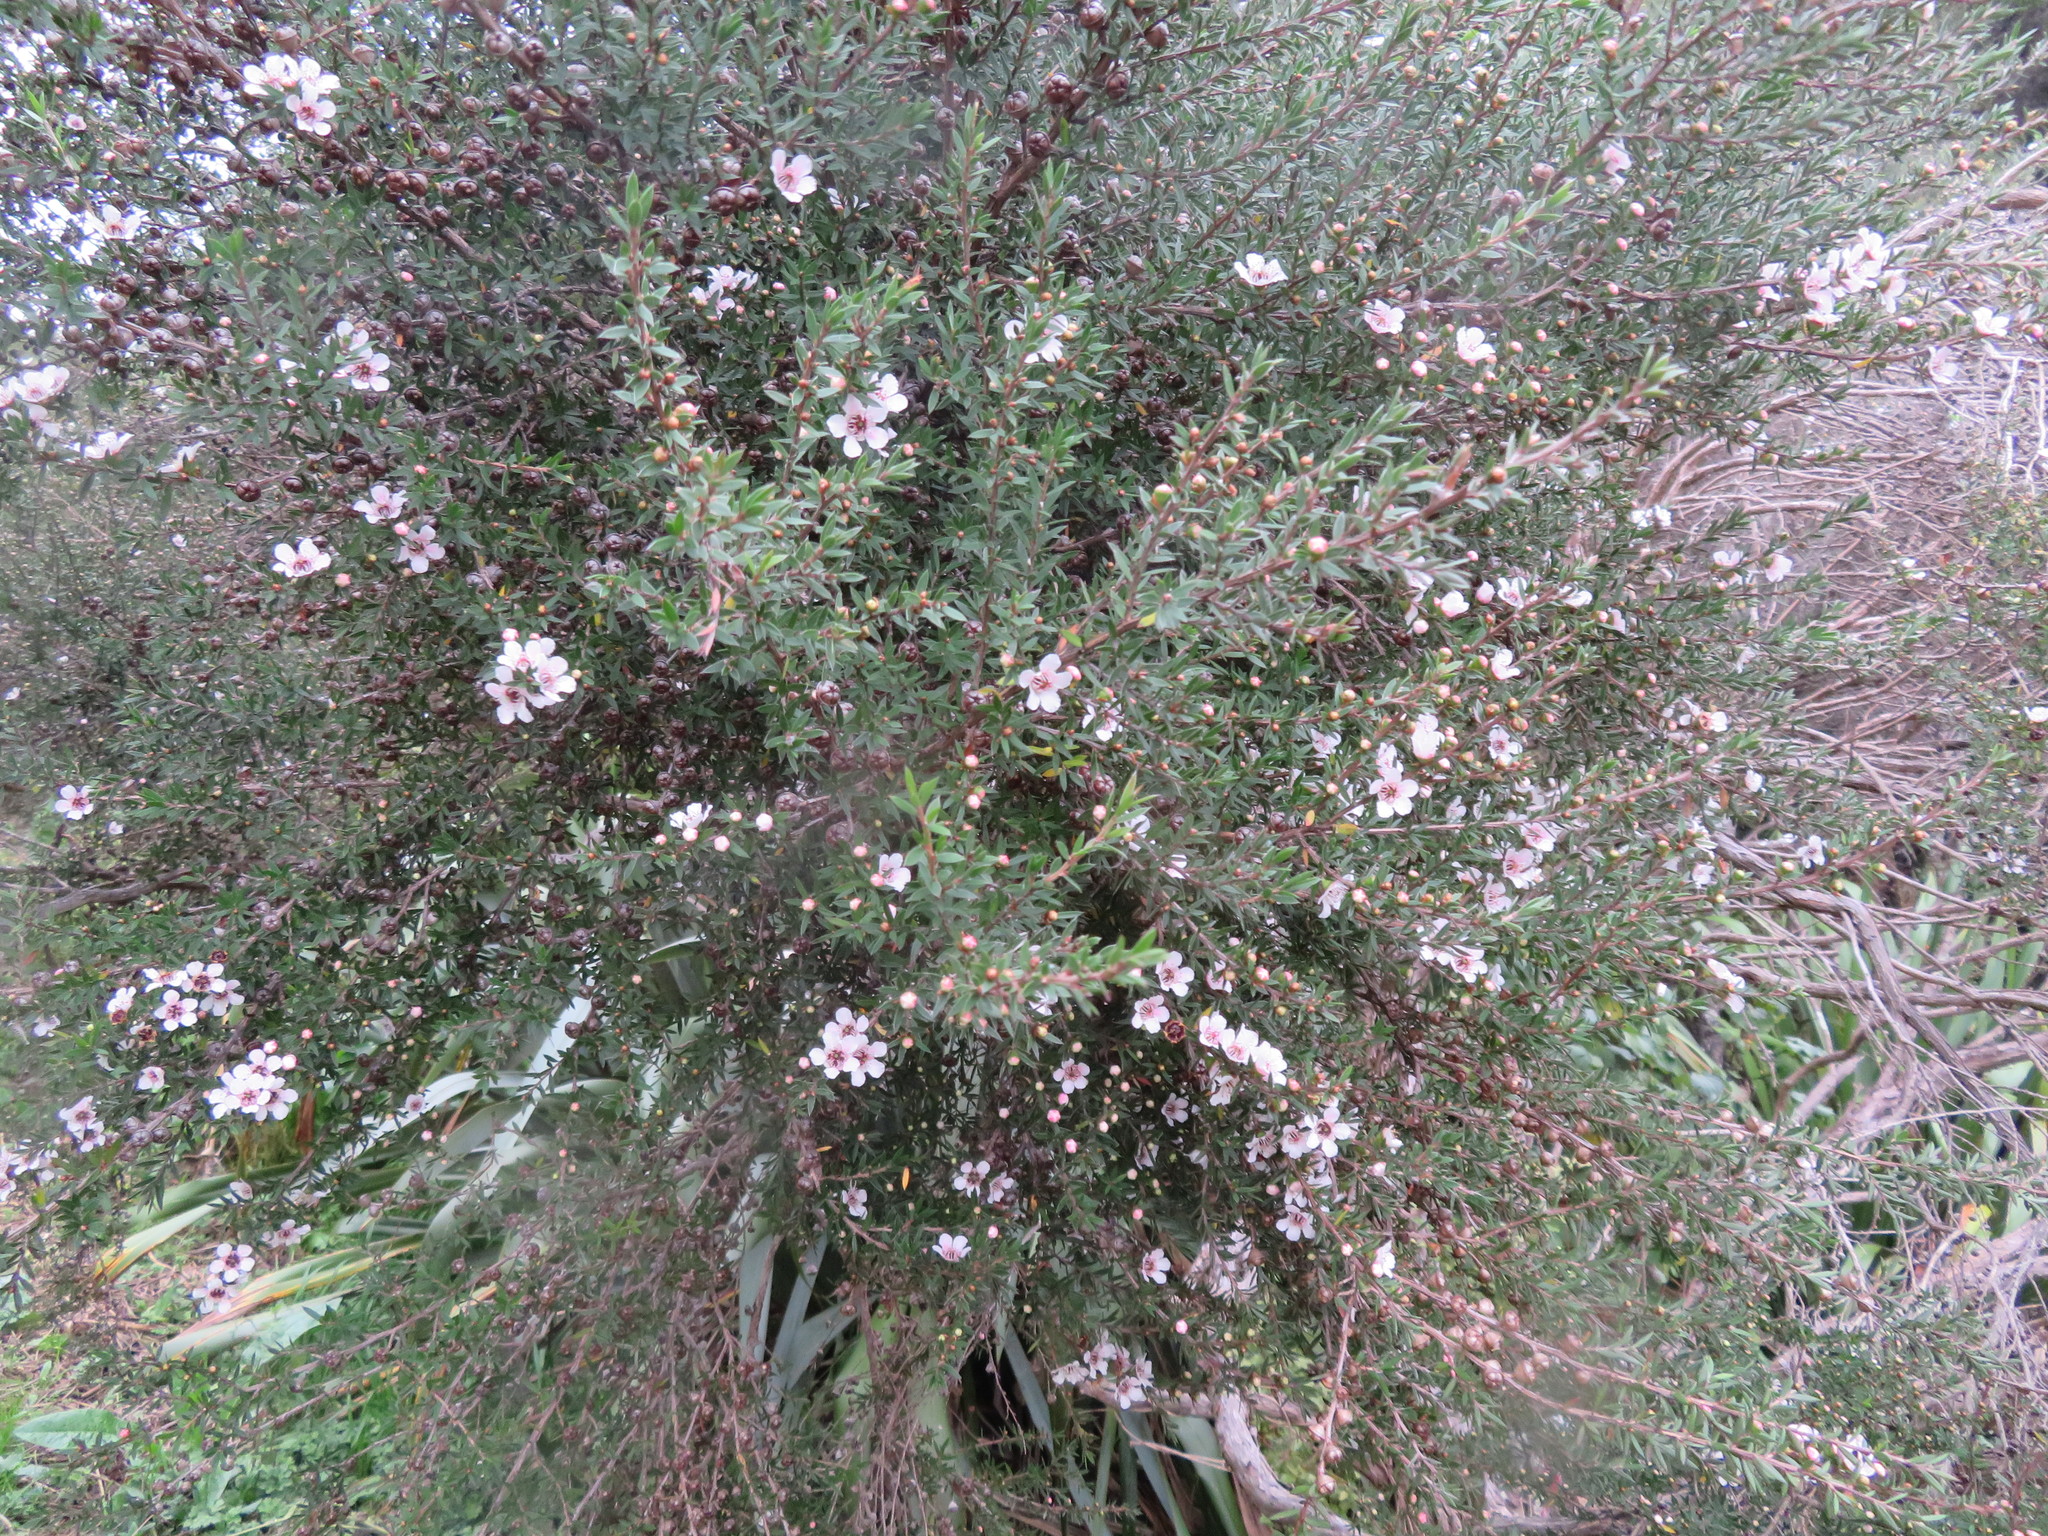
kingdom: Plantae
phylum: Tracheophyta
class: Magnoliopsida
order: Myrtales
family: Myrtaceae
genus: Leptospermum
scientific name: Leptospermum scoparium
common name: Broom tea-tree
